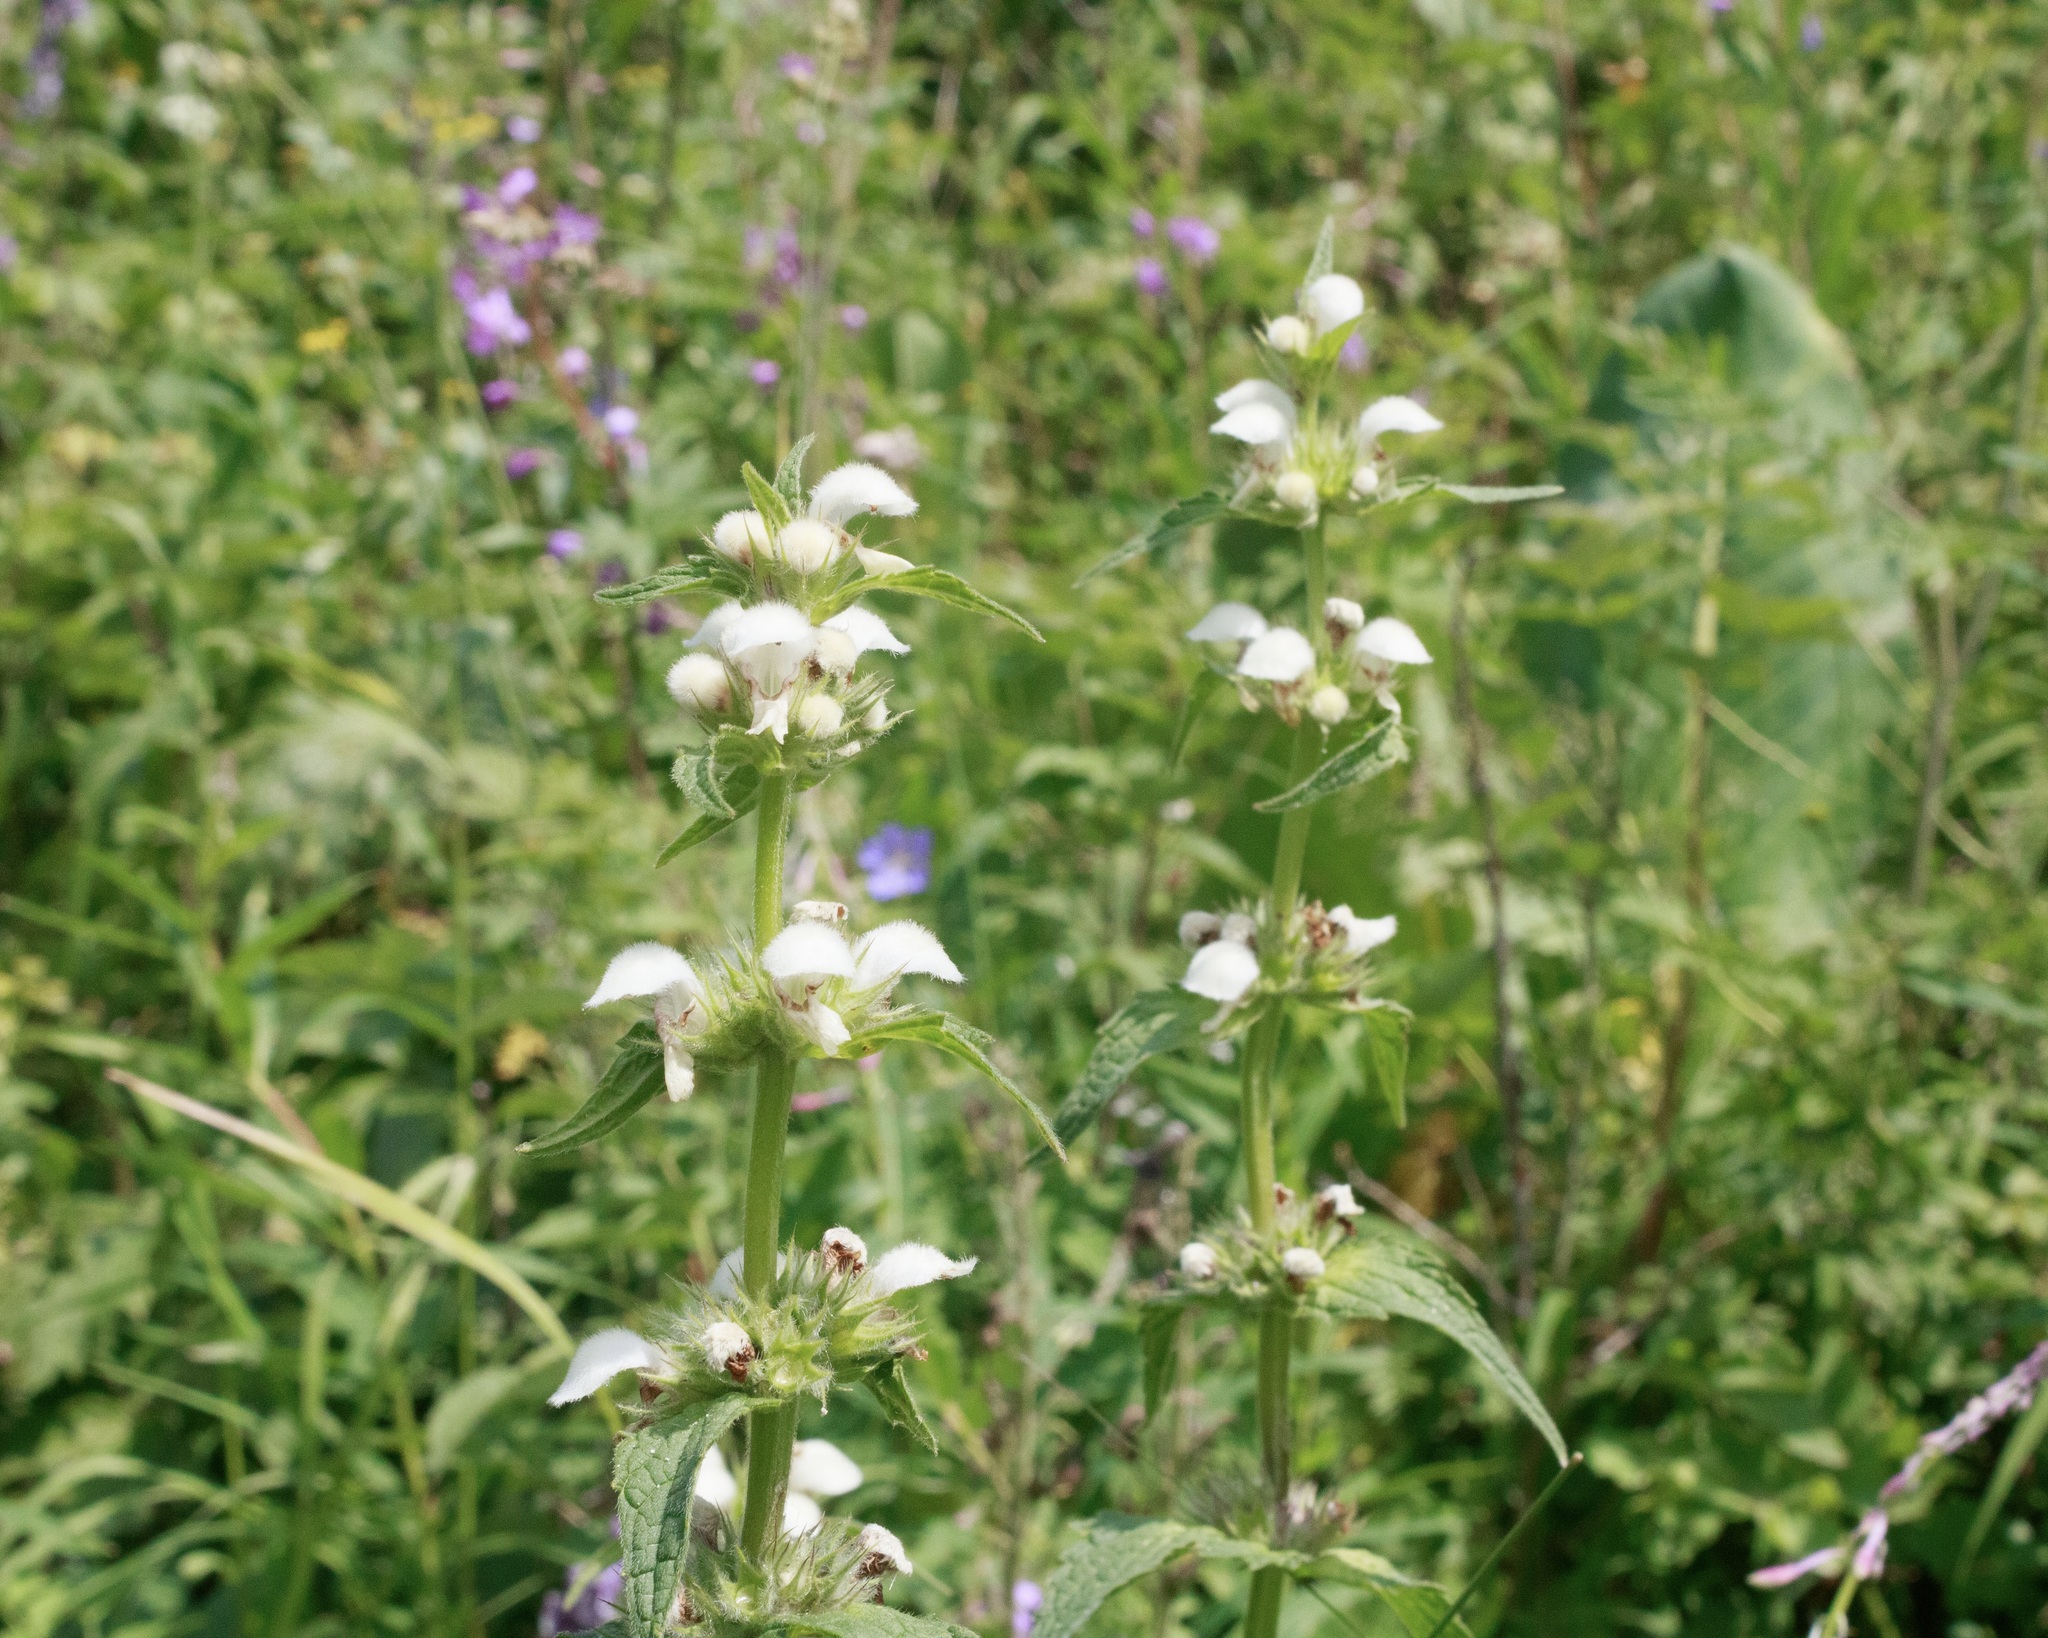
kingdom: Plantae
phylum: Tracheophyta
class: Magnoliopsida
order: Lamiales
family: Lamiaceae
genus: Lamium
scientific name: Lamium album
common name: White dead-nettle
